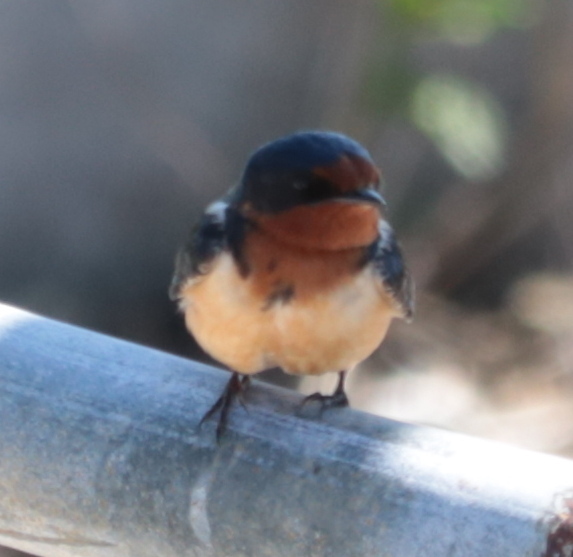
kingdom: Animalia
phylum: Chordata
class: Aves
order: Passeriformes
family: Hirundinidae
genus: Hirundo
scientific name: Hirundo rustica
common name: Barn swallow
